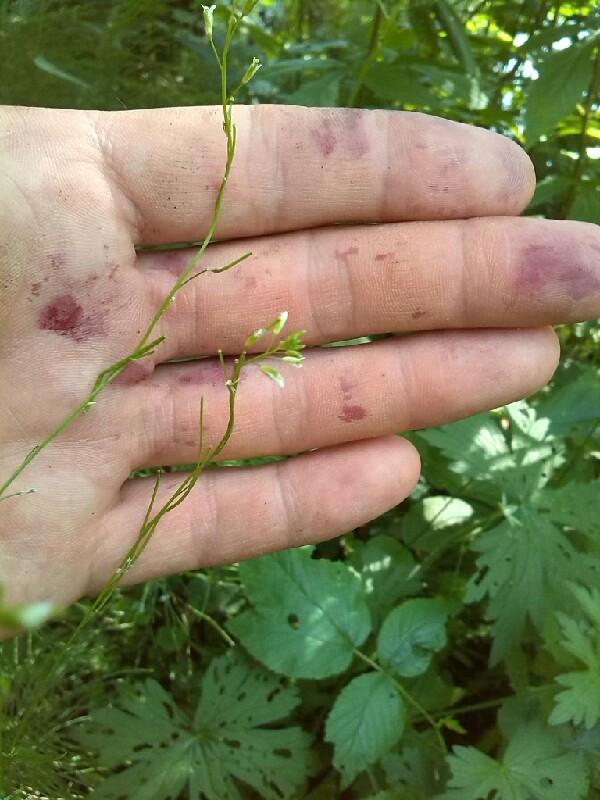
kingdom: Plantae
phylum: Tracheophyta
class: Magnoliopsida
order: Brassicales
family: Brassicaceae
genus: Turritis
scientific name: Turritis glabra
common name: Tower rockcress
